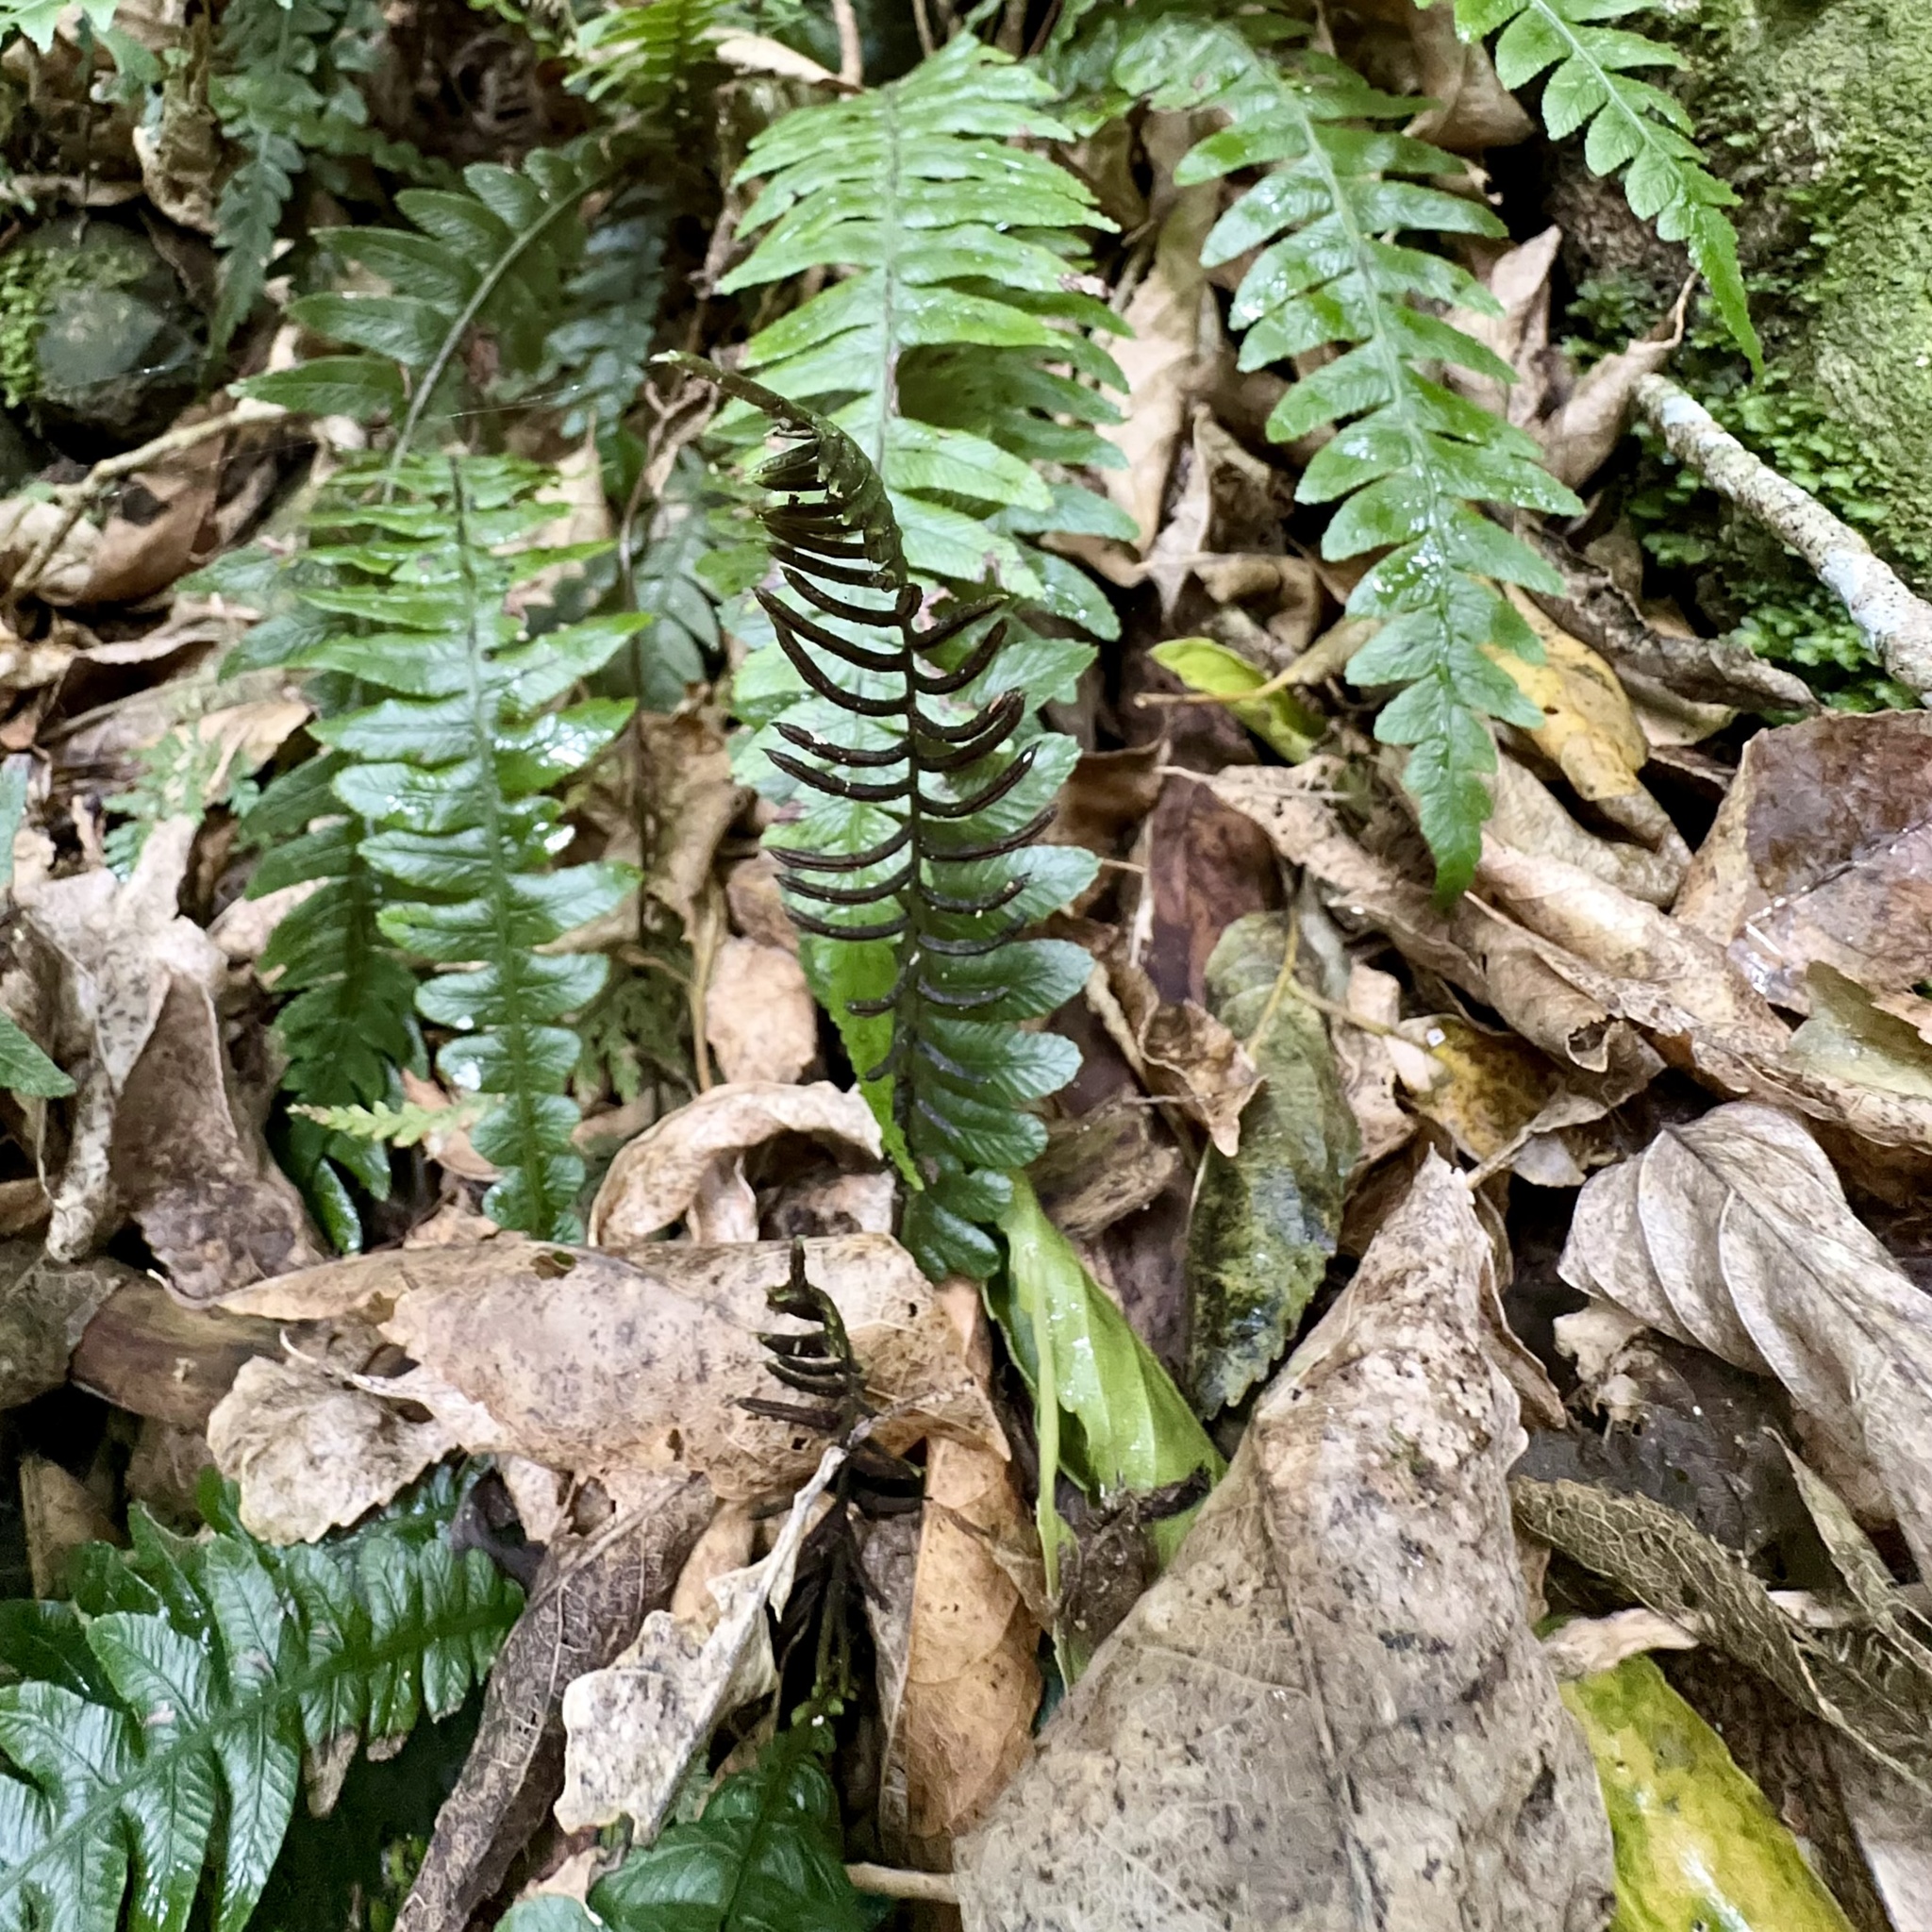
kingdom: Plantae
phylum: Tracheophyta
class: Polypodiopsida
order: Polypodiales
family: Blechnaceae
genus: Austroblechnum
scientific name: Austroblechnum lanceolatum
